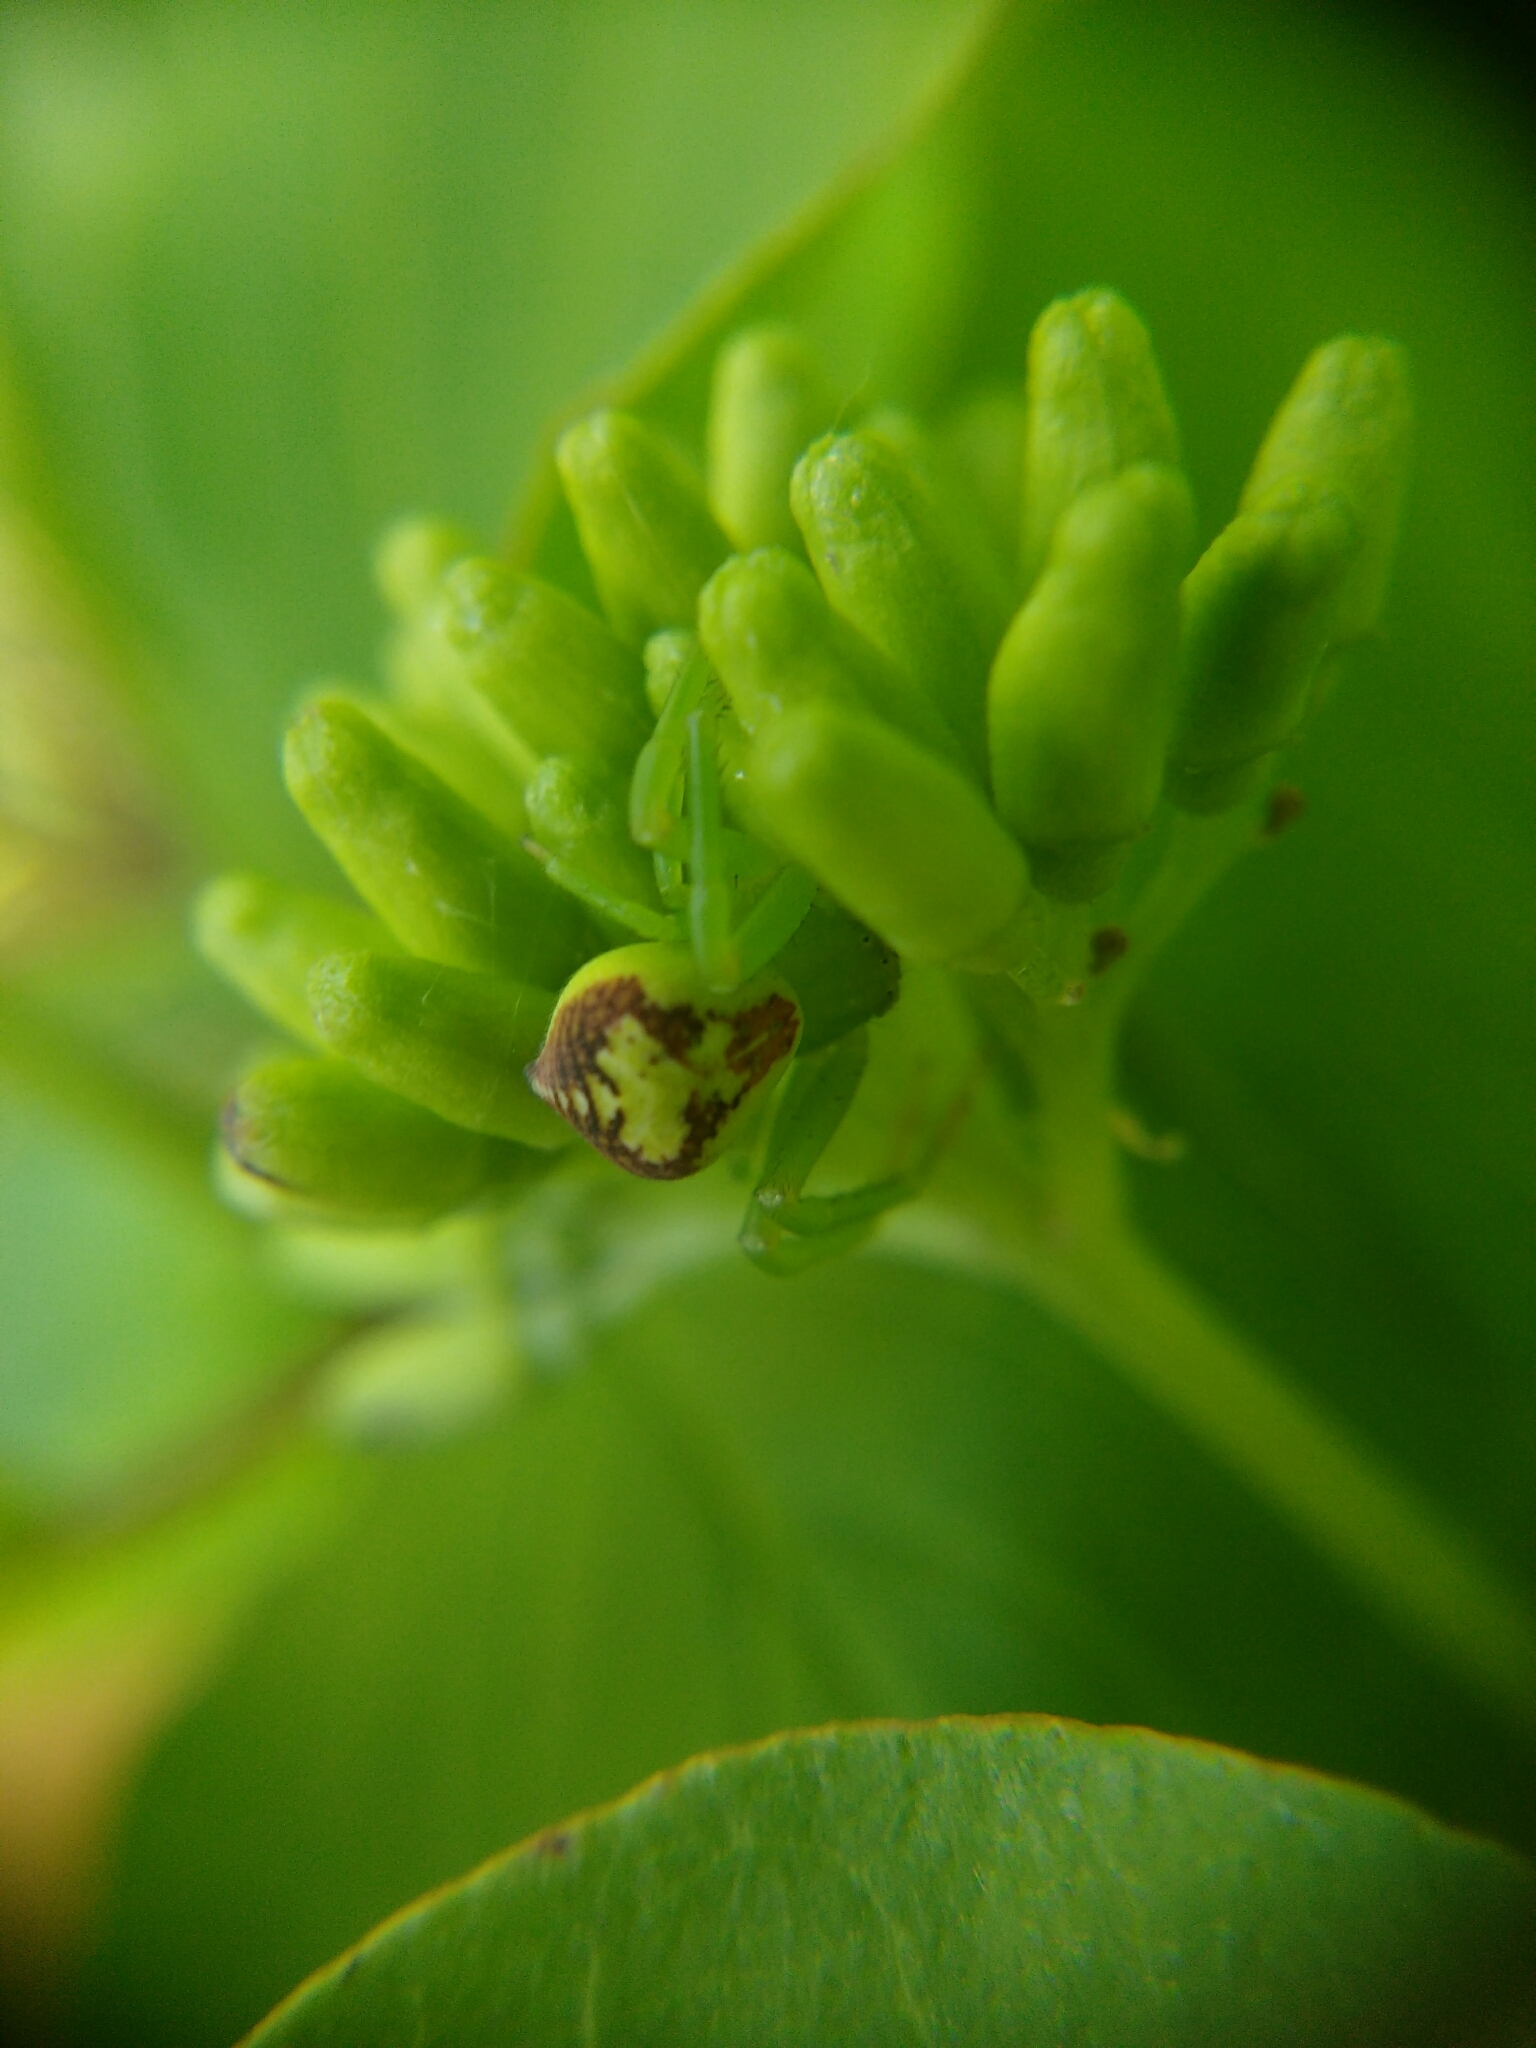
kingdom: Animalia
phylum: Arthropoda
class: Arachnida
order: Araneae
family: Thomisidae
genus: Ebrechtella
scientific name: Ebrechtella tricuspidata
